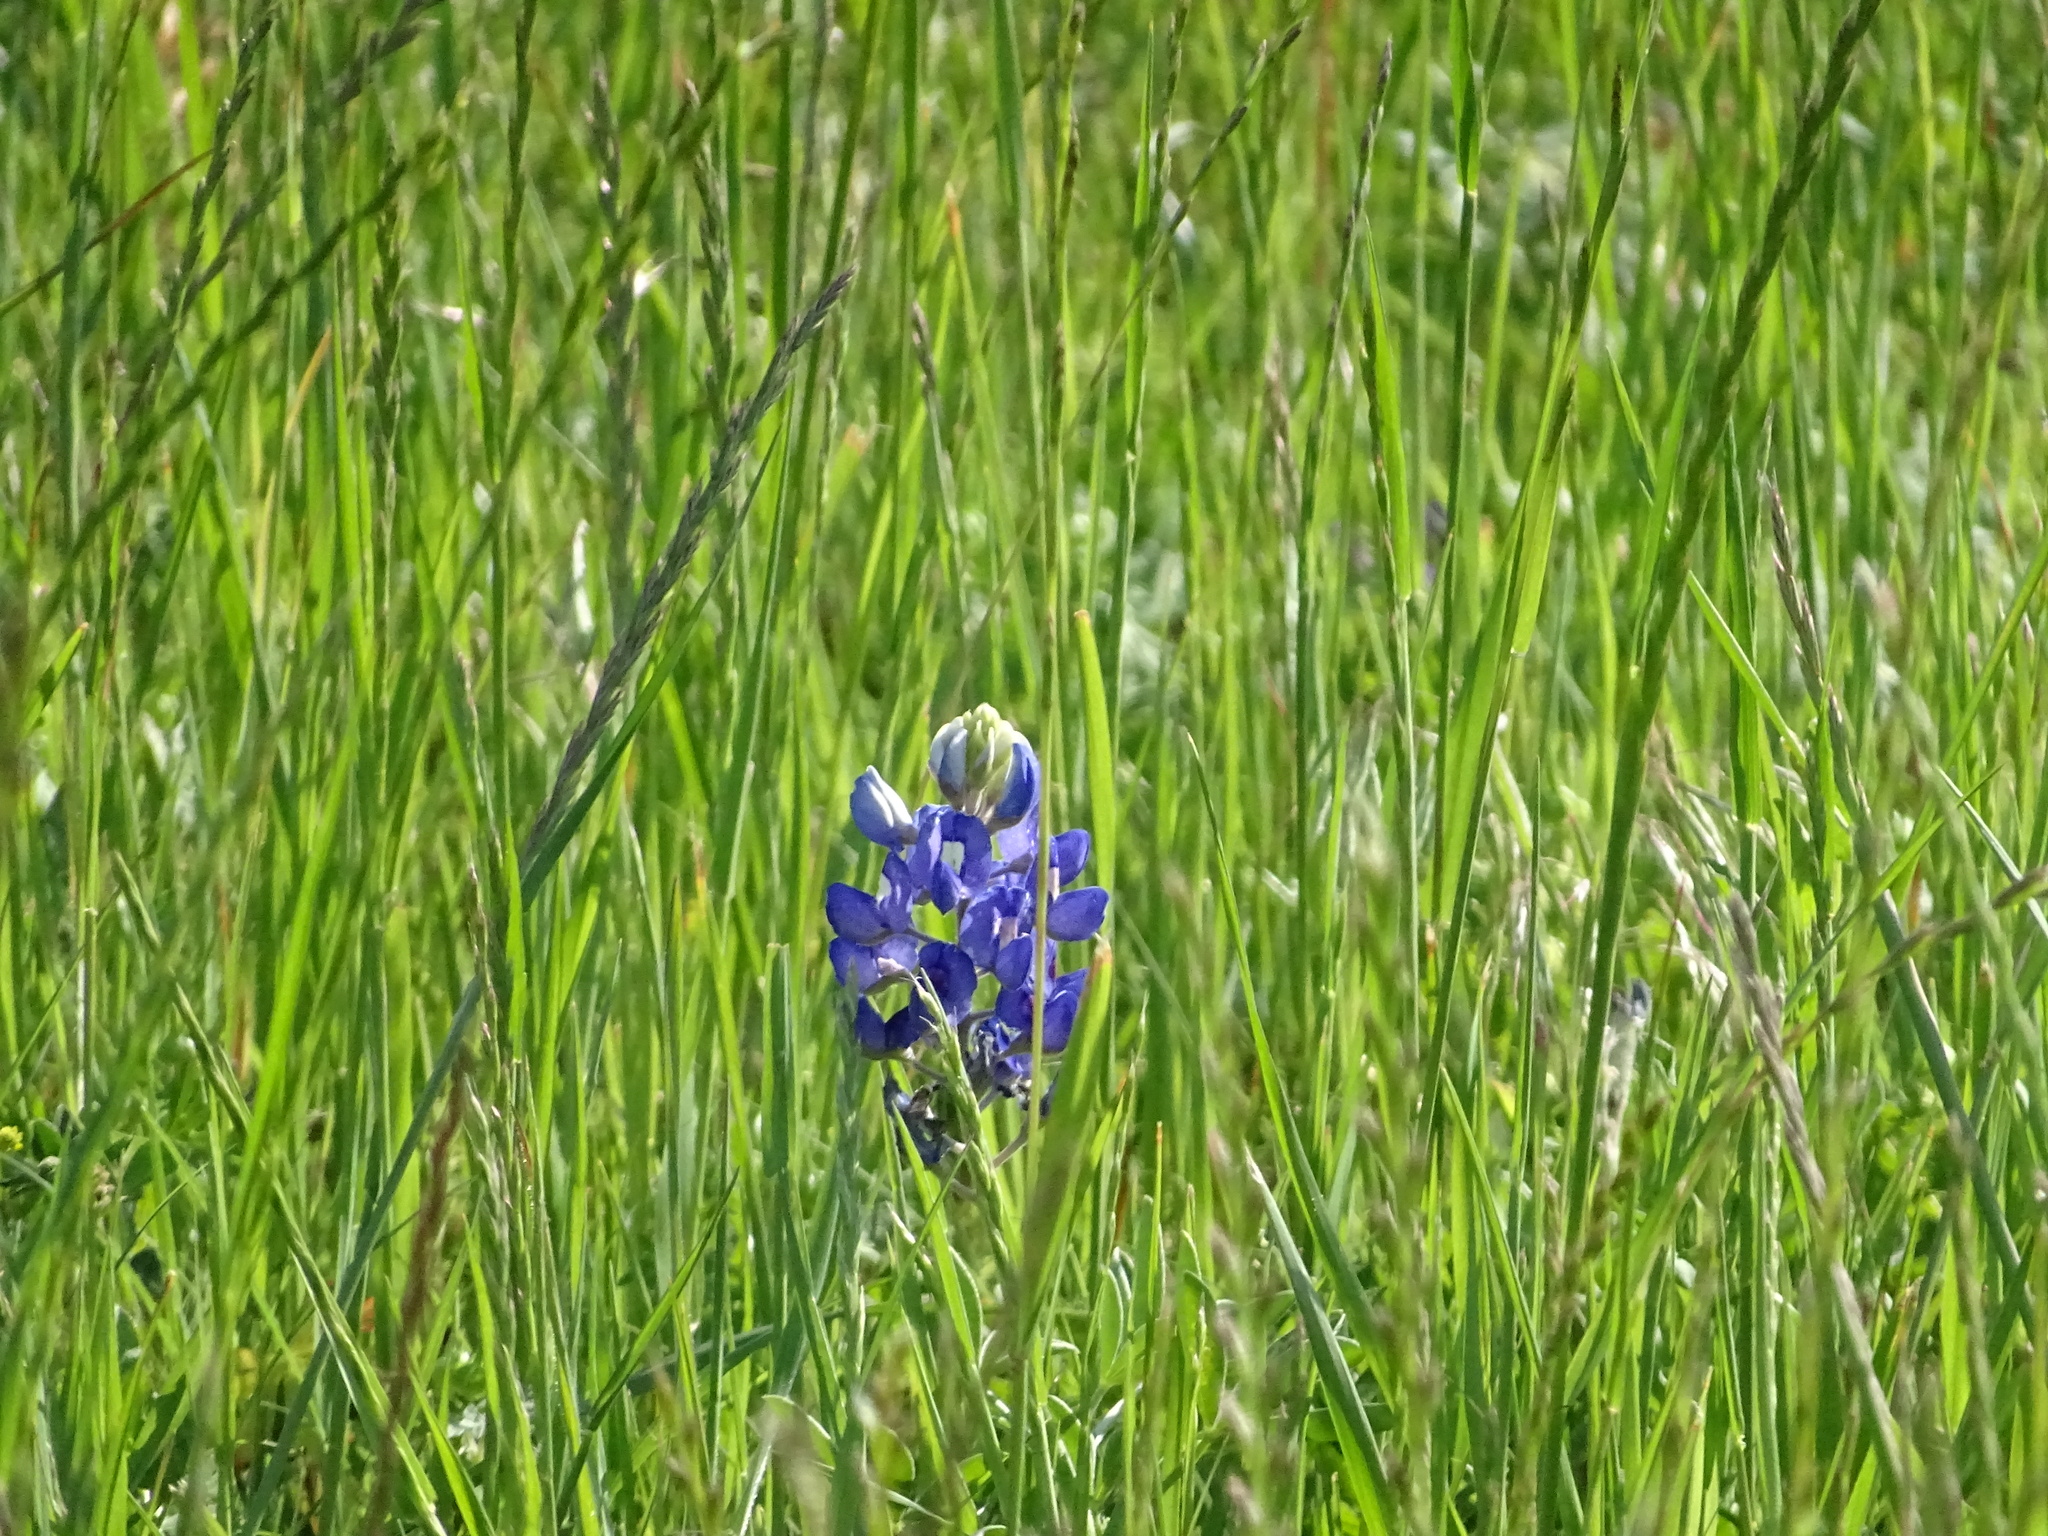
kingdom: Plantae
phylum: Tracheophyta
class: Magnoliopsida
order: Fabales
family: Fabaceae
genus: Lupinus
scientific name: Lupinus texensis
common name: Texas bluebonnet
